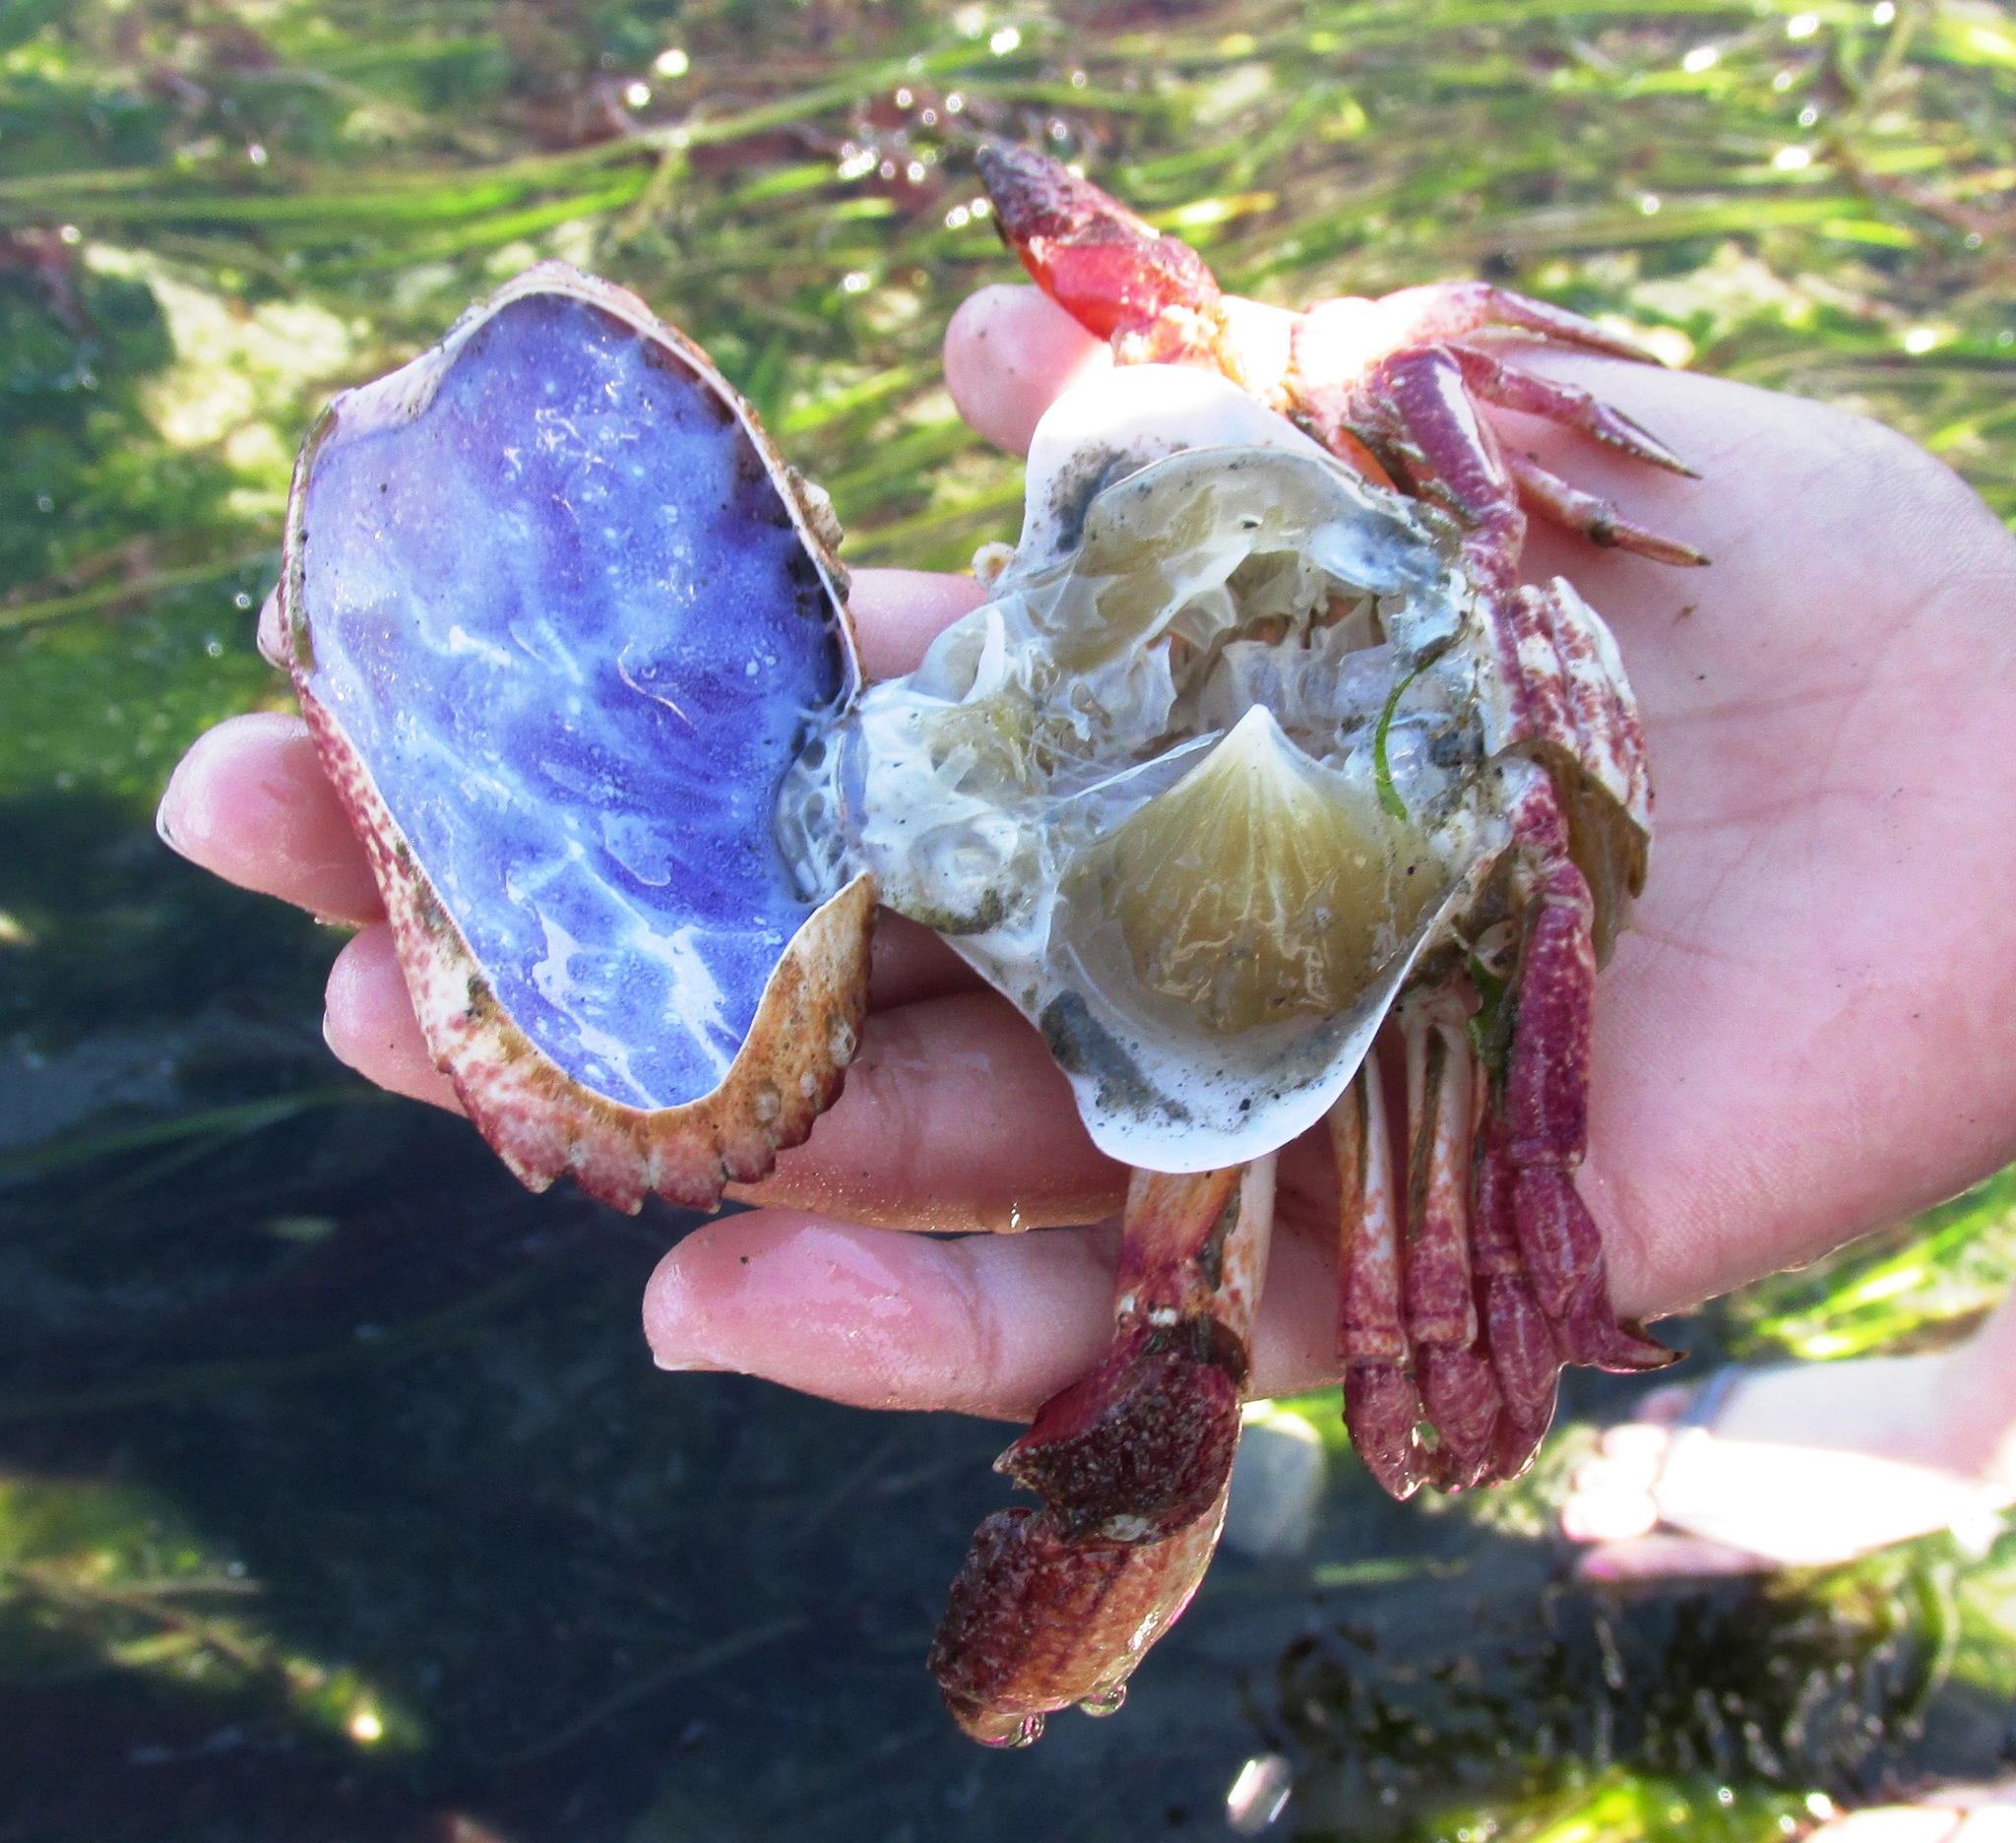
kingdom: Animalia
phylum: Arthropoda
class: Malacostraca
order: Decapoda
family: Cancridae
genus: Cancer
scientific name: Cancer productus
